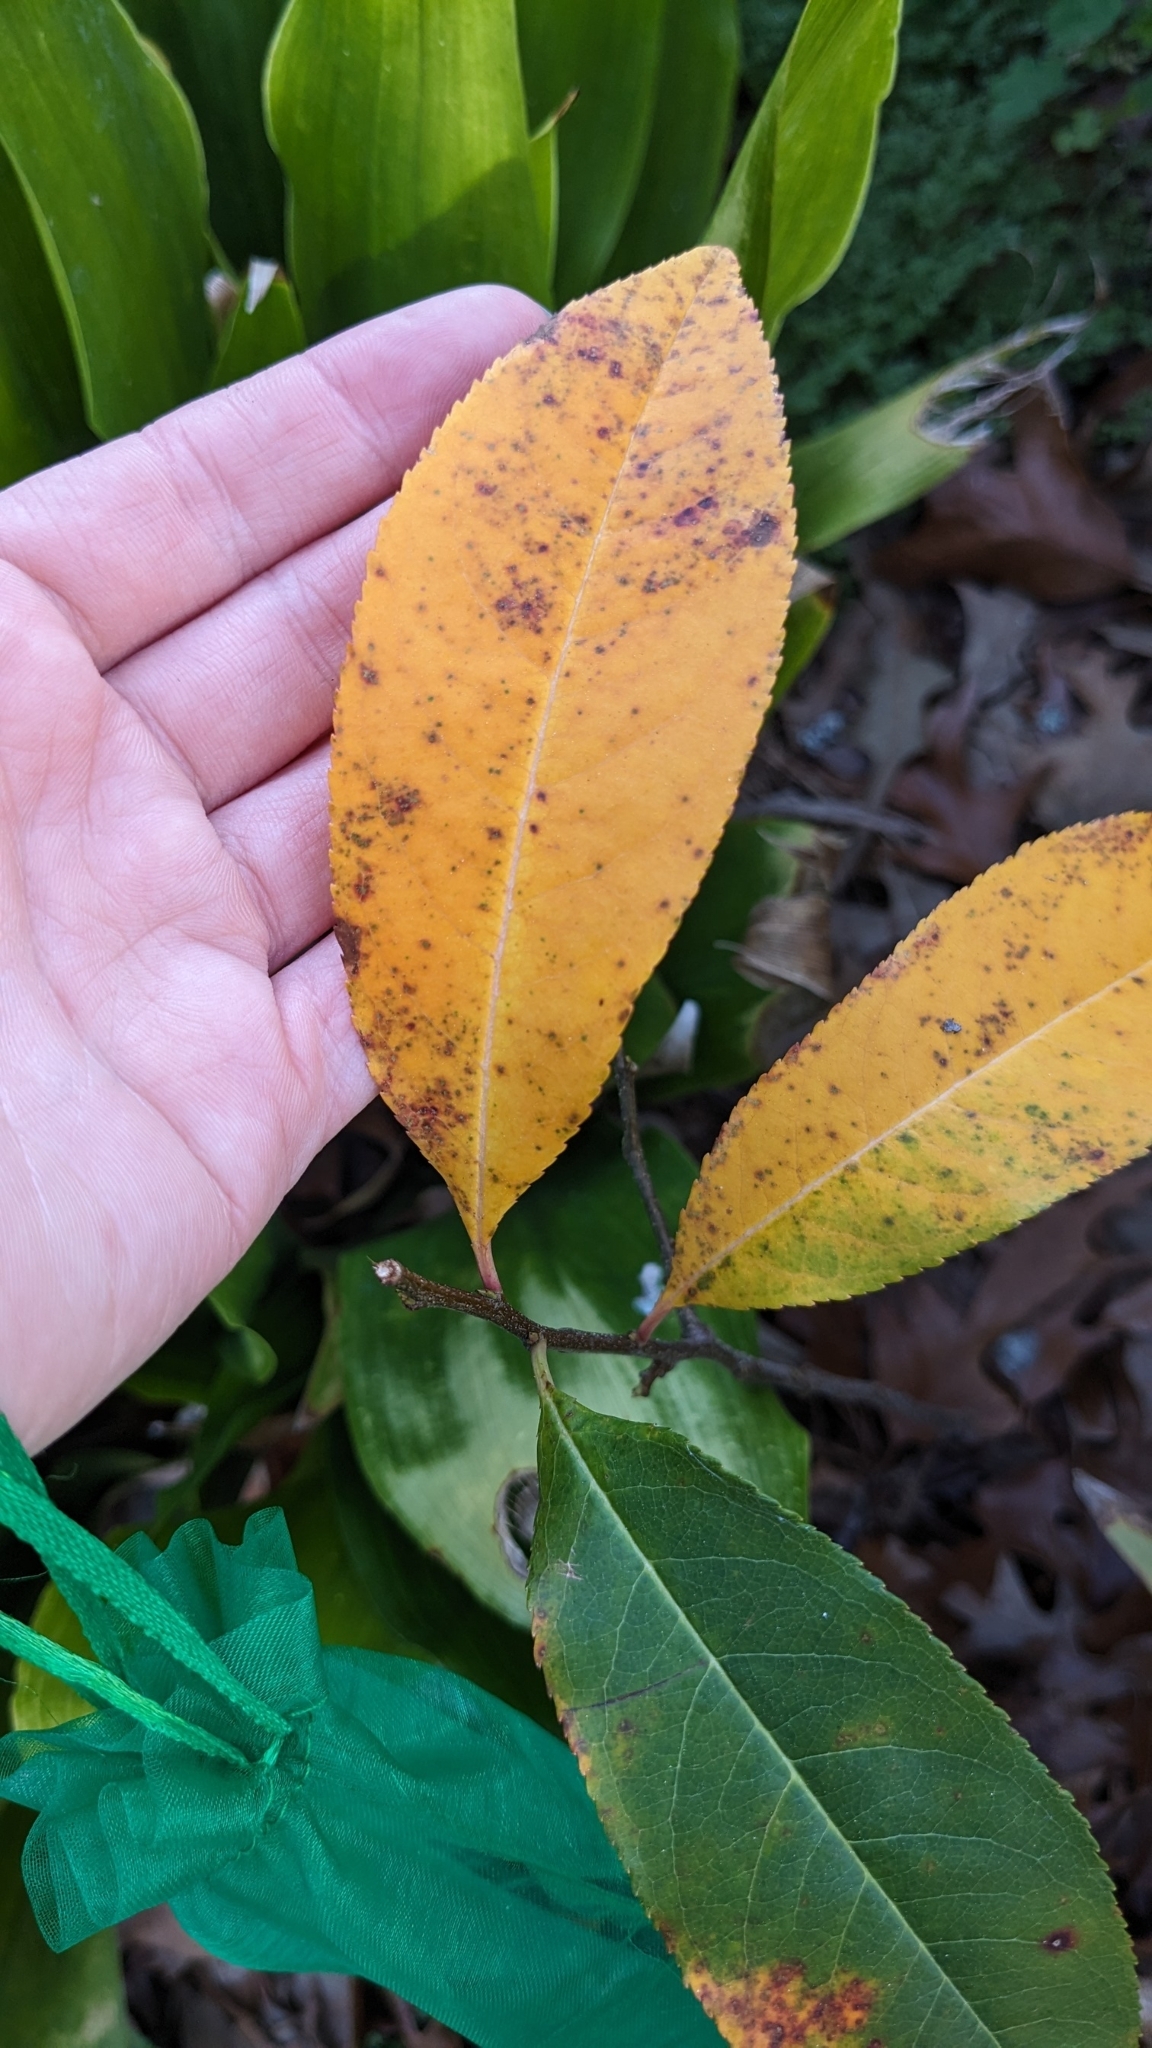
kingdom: Plantae
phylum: Tracheophyta
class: Magnoliopsida
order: Rosales
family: Rosaceae
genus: Prunus
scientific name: Prunus serotina
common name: Black cherry
